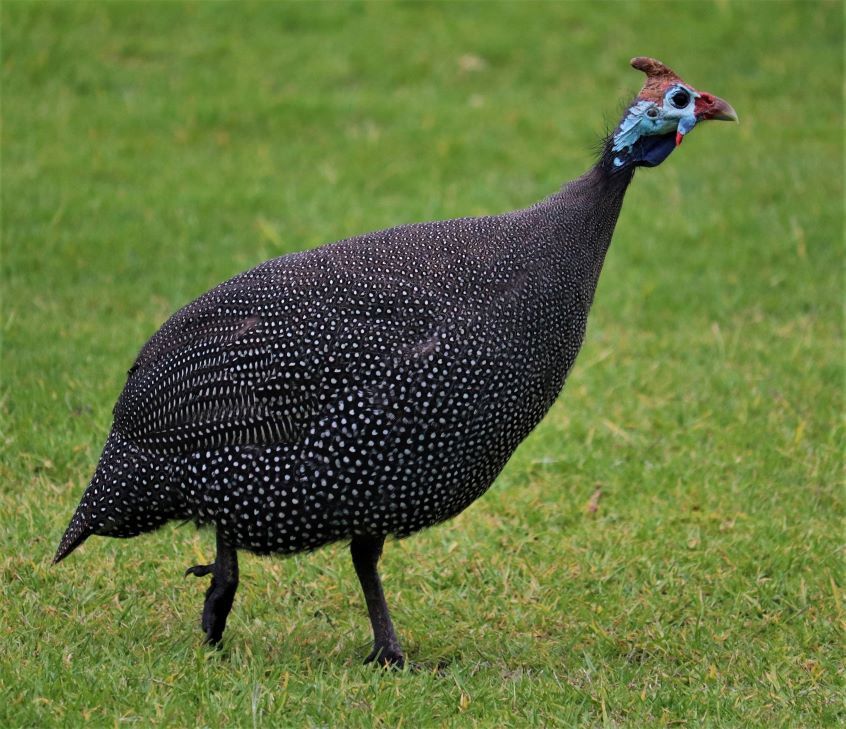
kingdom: Animalia
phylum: Chordata
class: Aves
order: Galliformes
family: Numididae
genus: Numida
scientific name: Numida meleagris
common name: Helmeted guineafowl
